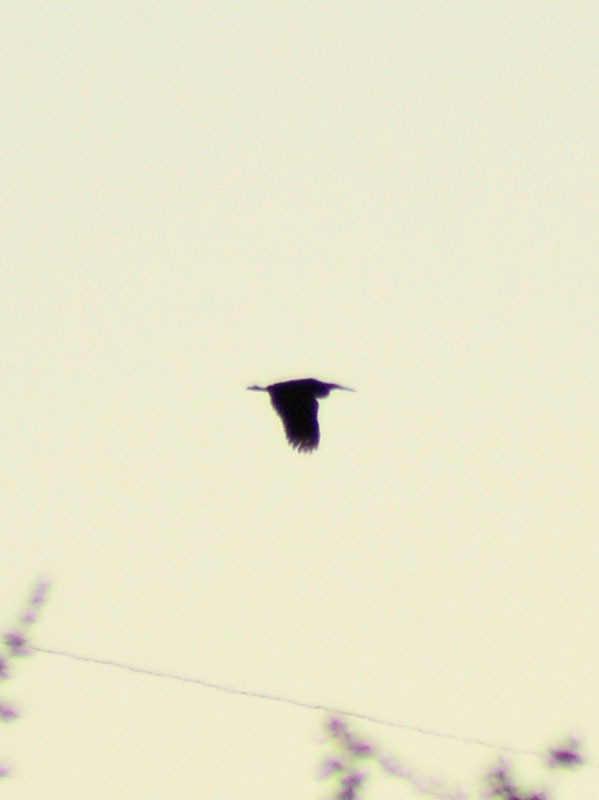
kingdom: Animalia
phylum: Chordata
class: Aves
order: Pelecaniformes
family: Ardeidae
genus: Tigrisoma
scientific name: Tigrisoma mexicanum
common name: Bare-throated tiger-heron
